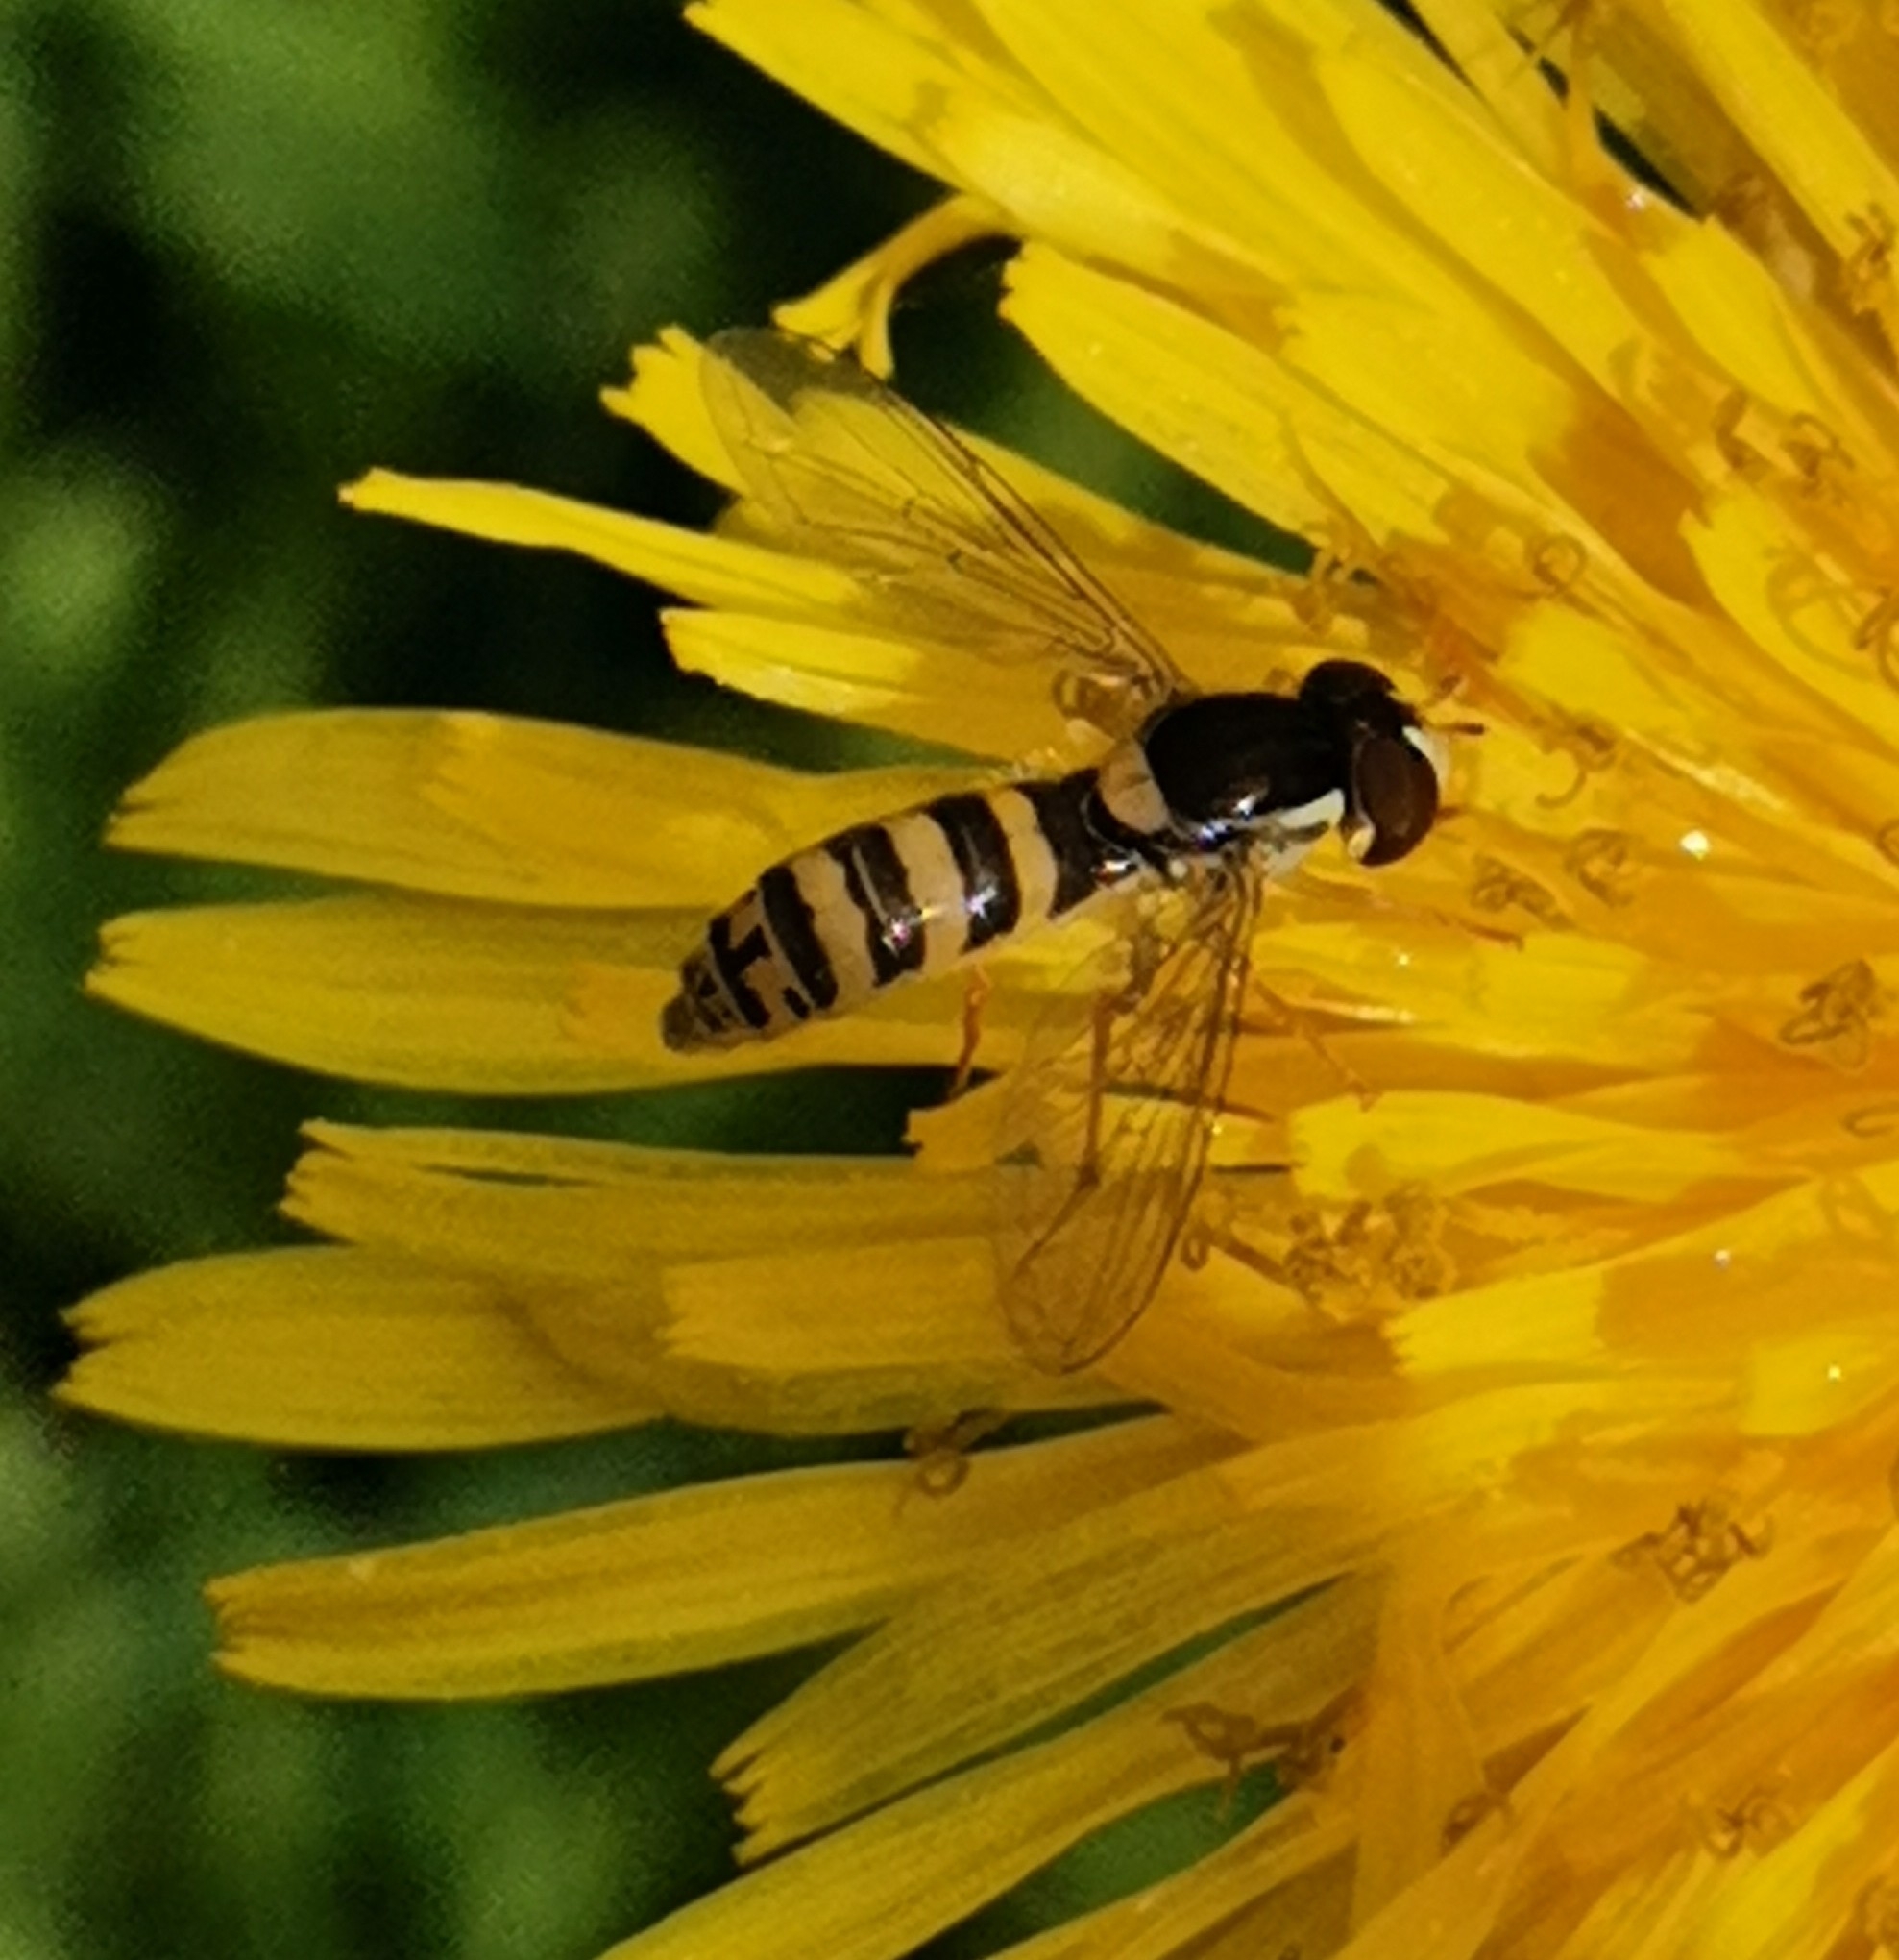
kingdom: Animalia
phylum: Arthropoda
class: Insecta
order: Diptera
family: Syrphidae
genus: Sphaerophoria
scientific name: Sphaerophoria
